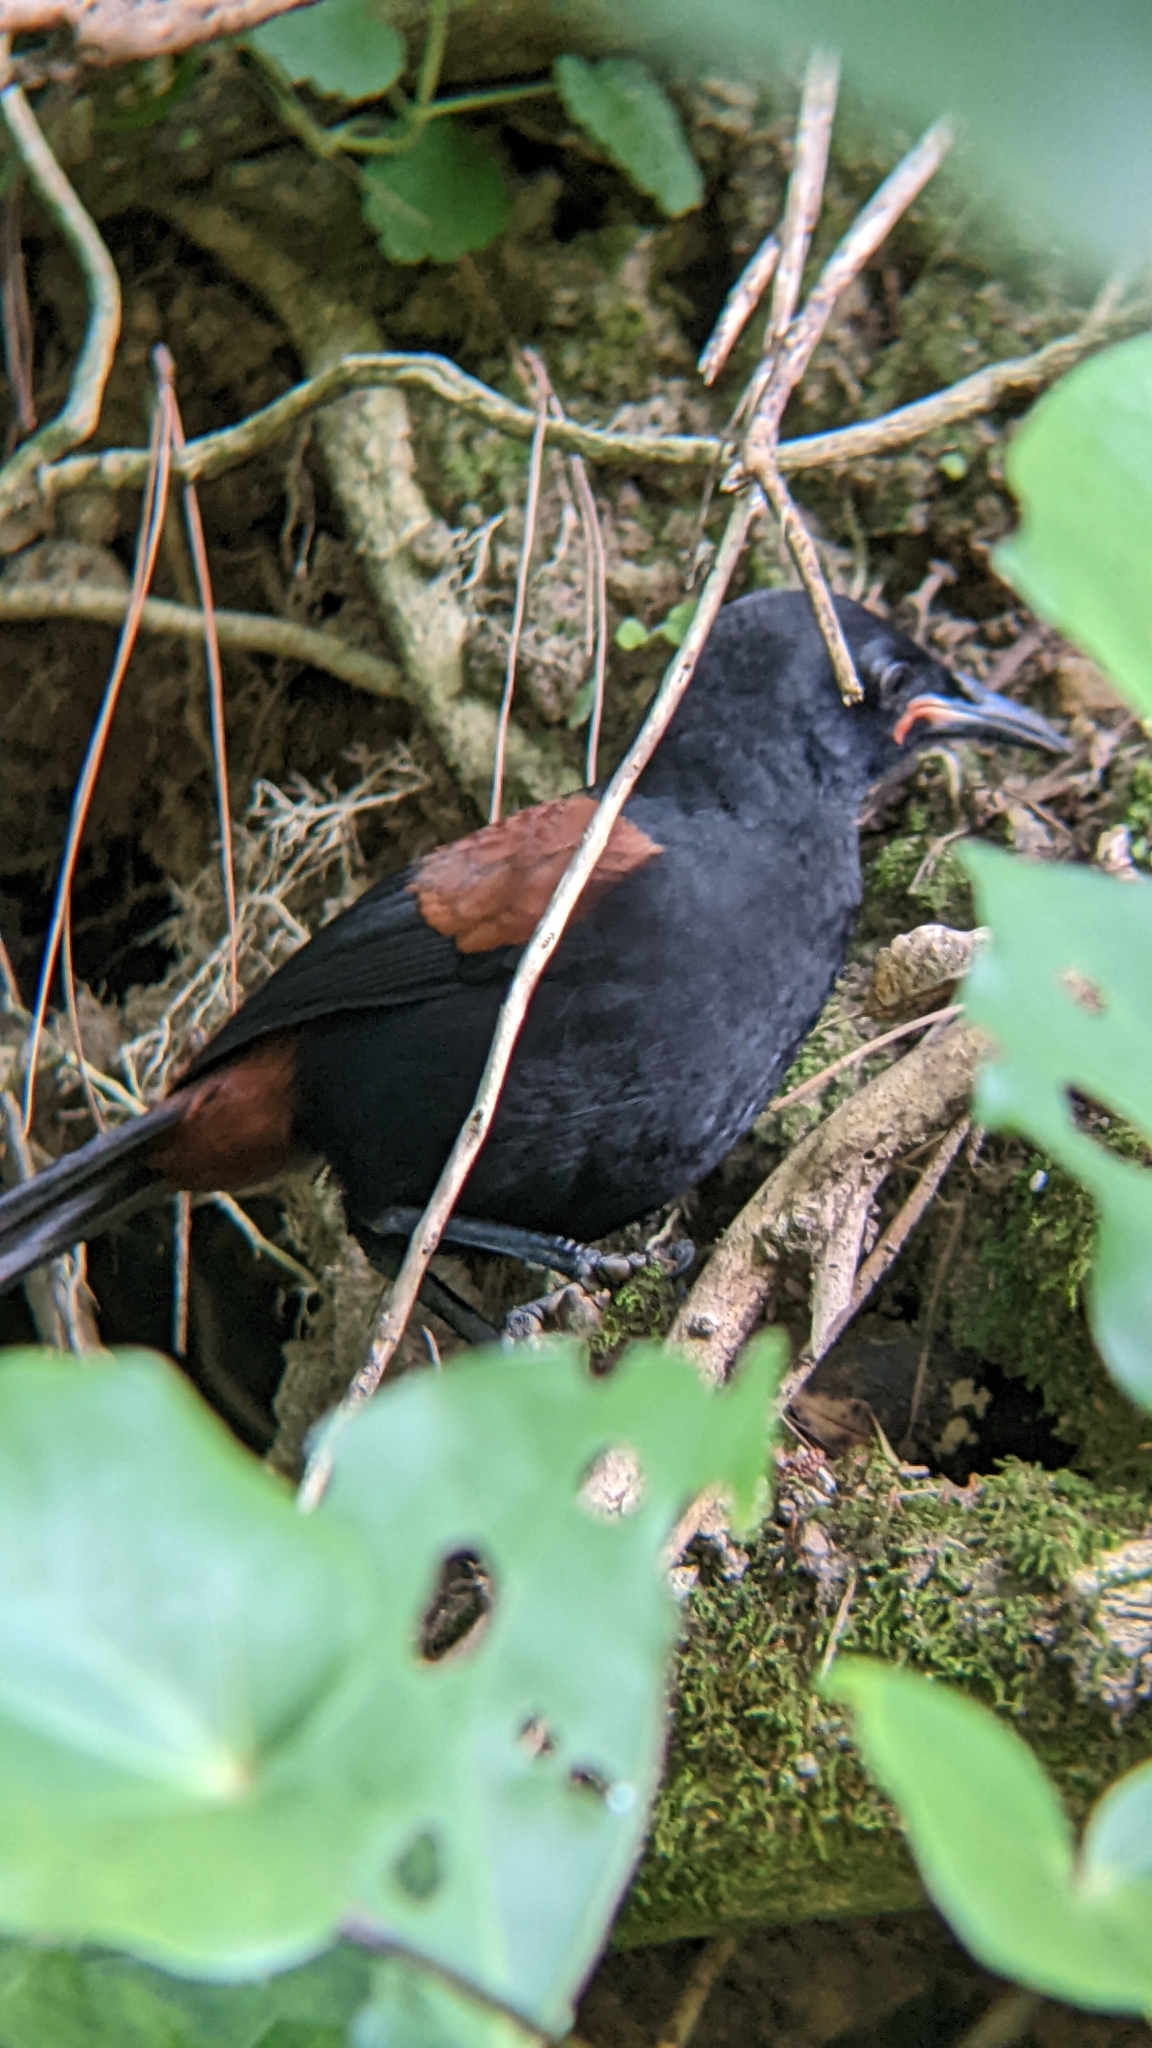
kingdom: Animalia
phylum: Chordata
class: Aves
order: Passeriformes
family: Callaeatidae
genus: Philesturnus
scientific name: Philesturnus carunculatus
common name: South island saddleback
